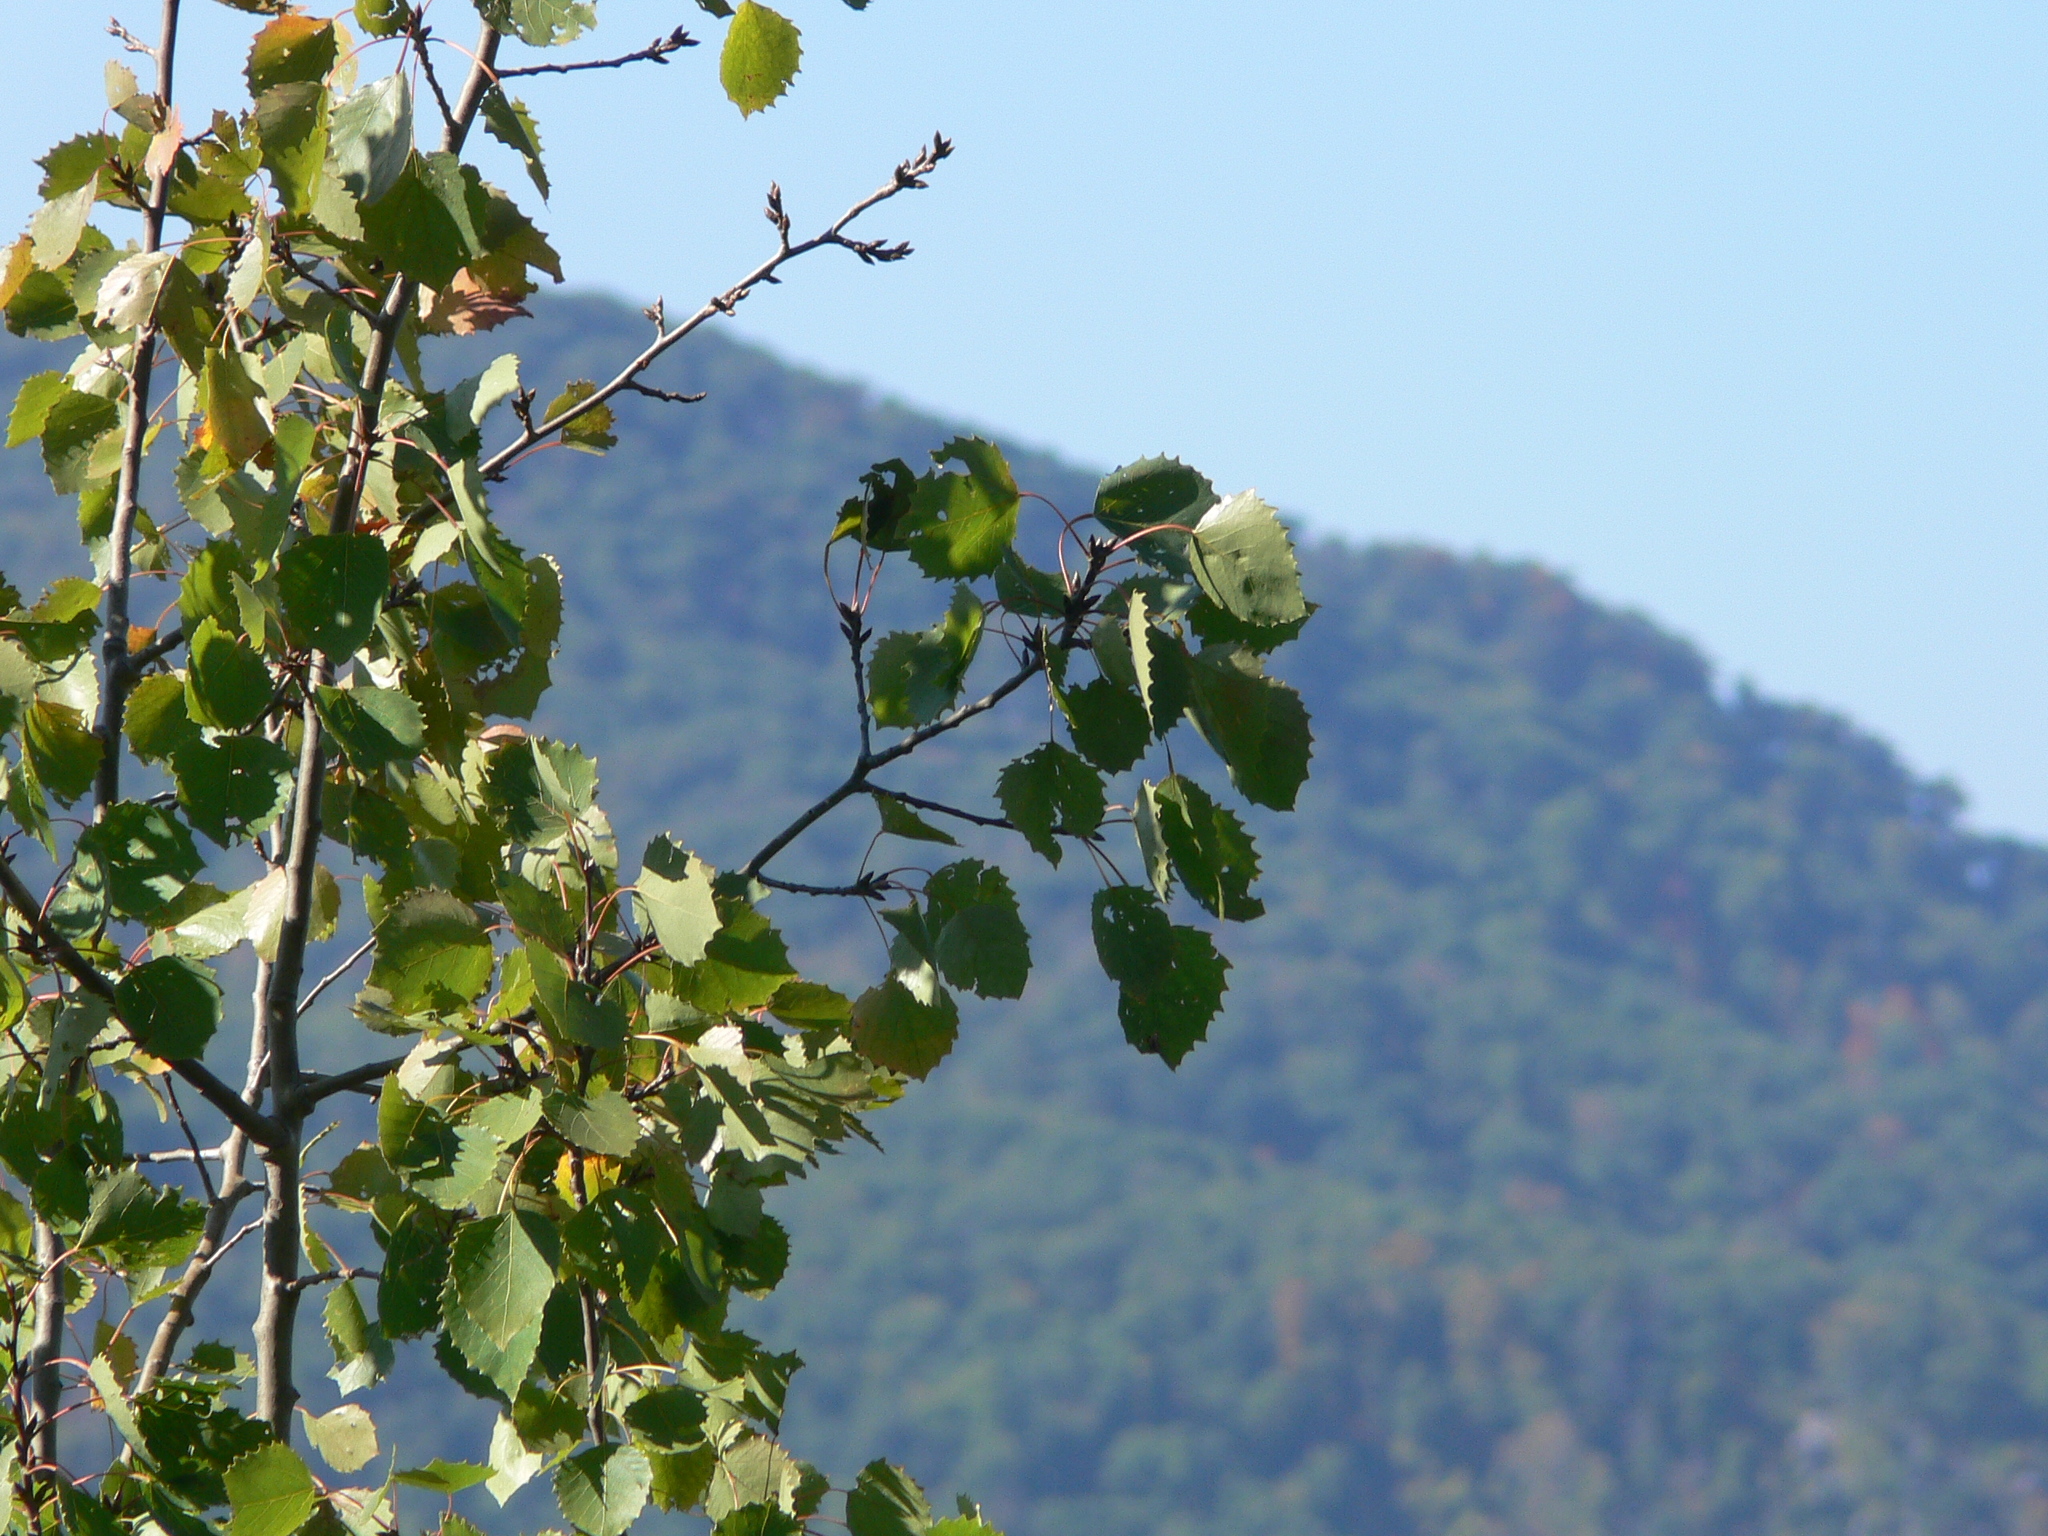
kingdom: Plantae
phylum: Tracheophyta
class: Magnoliopsida
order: Malpighiales
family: Salicaceae
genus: Populus
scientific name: Populus grandidentata
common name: Bigtooth aspen
